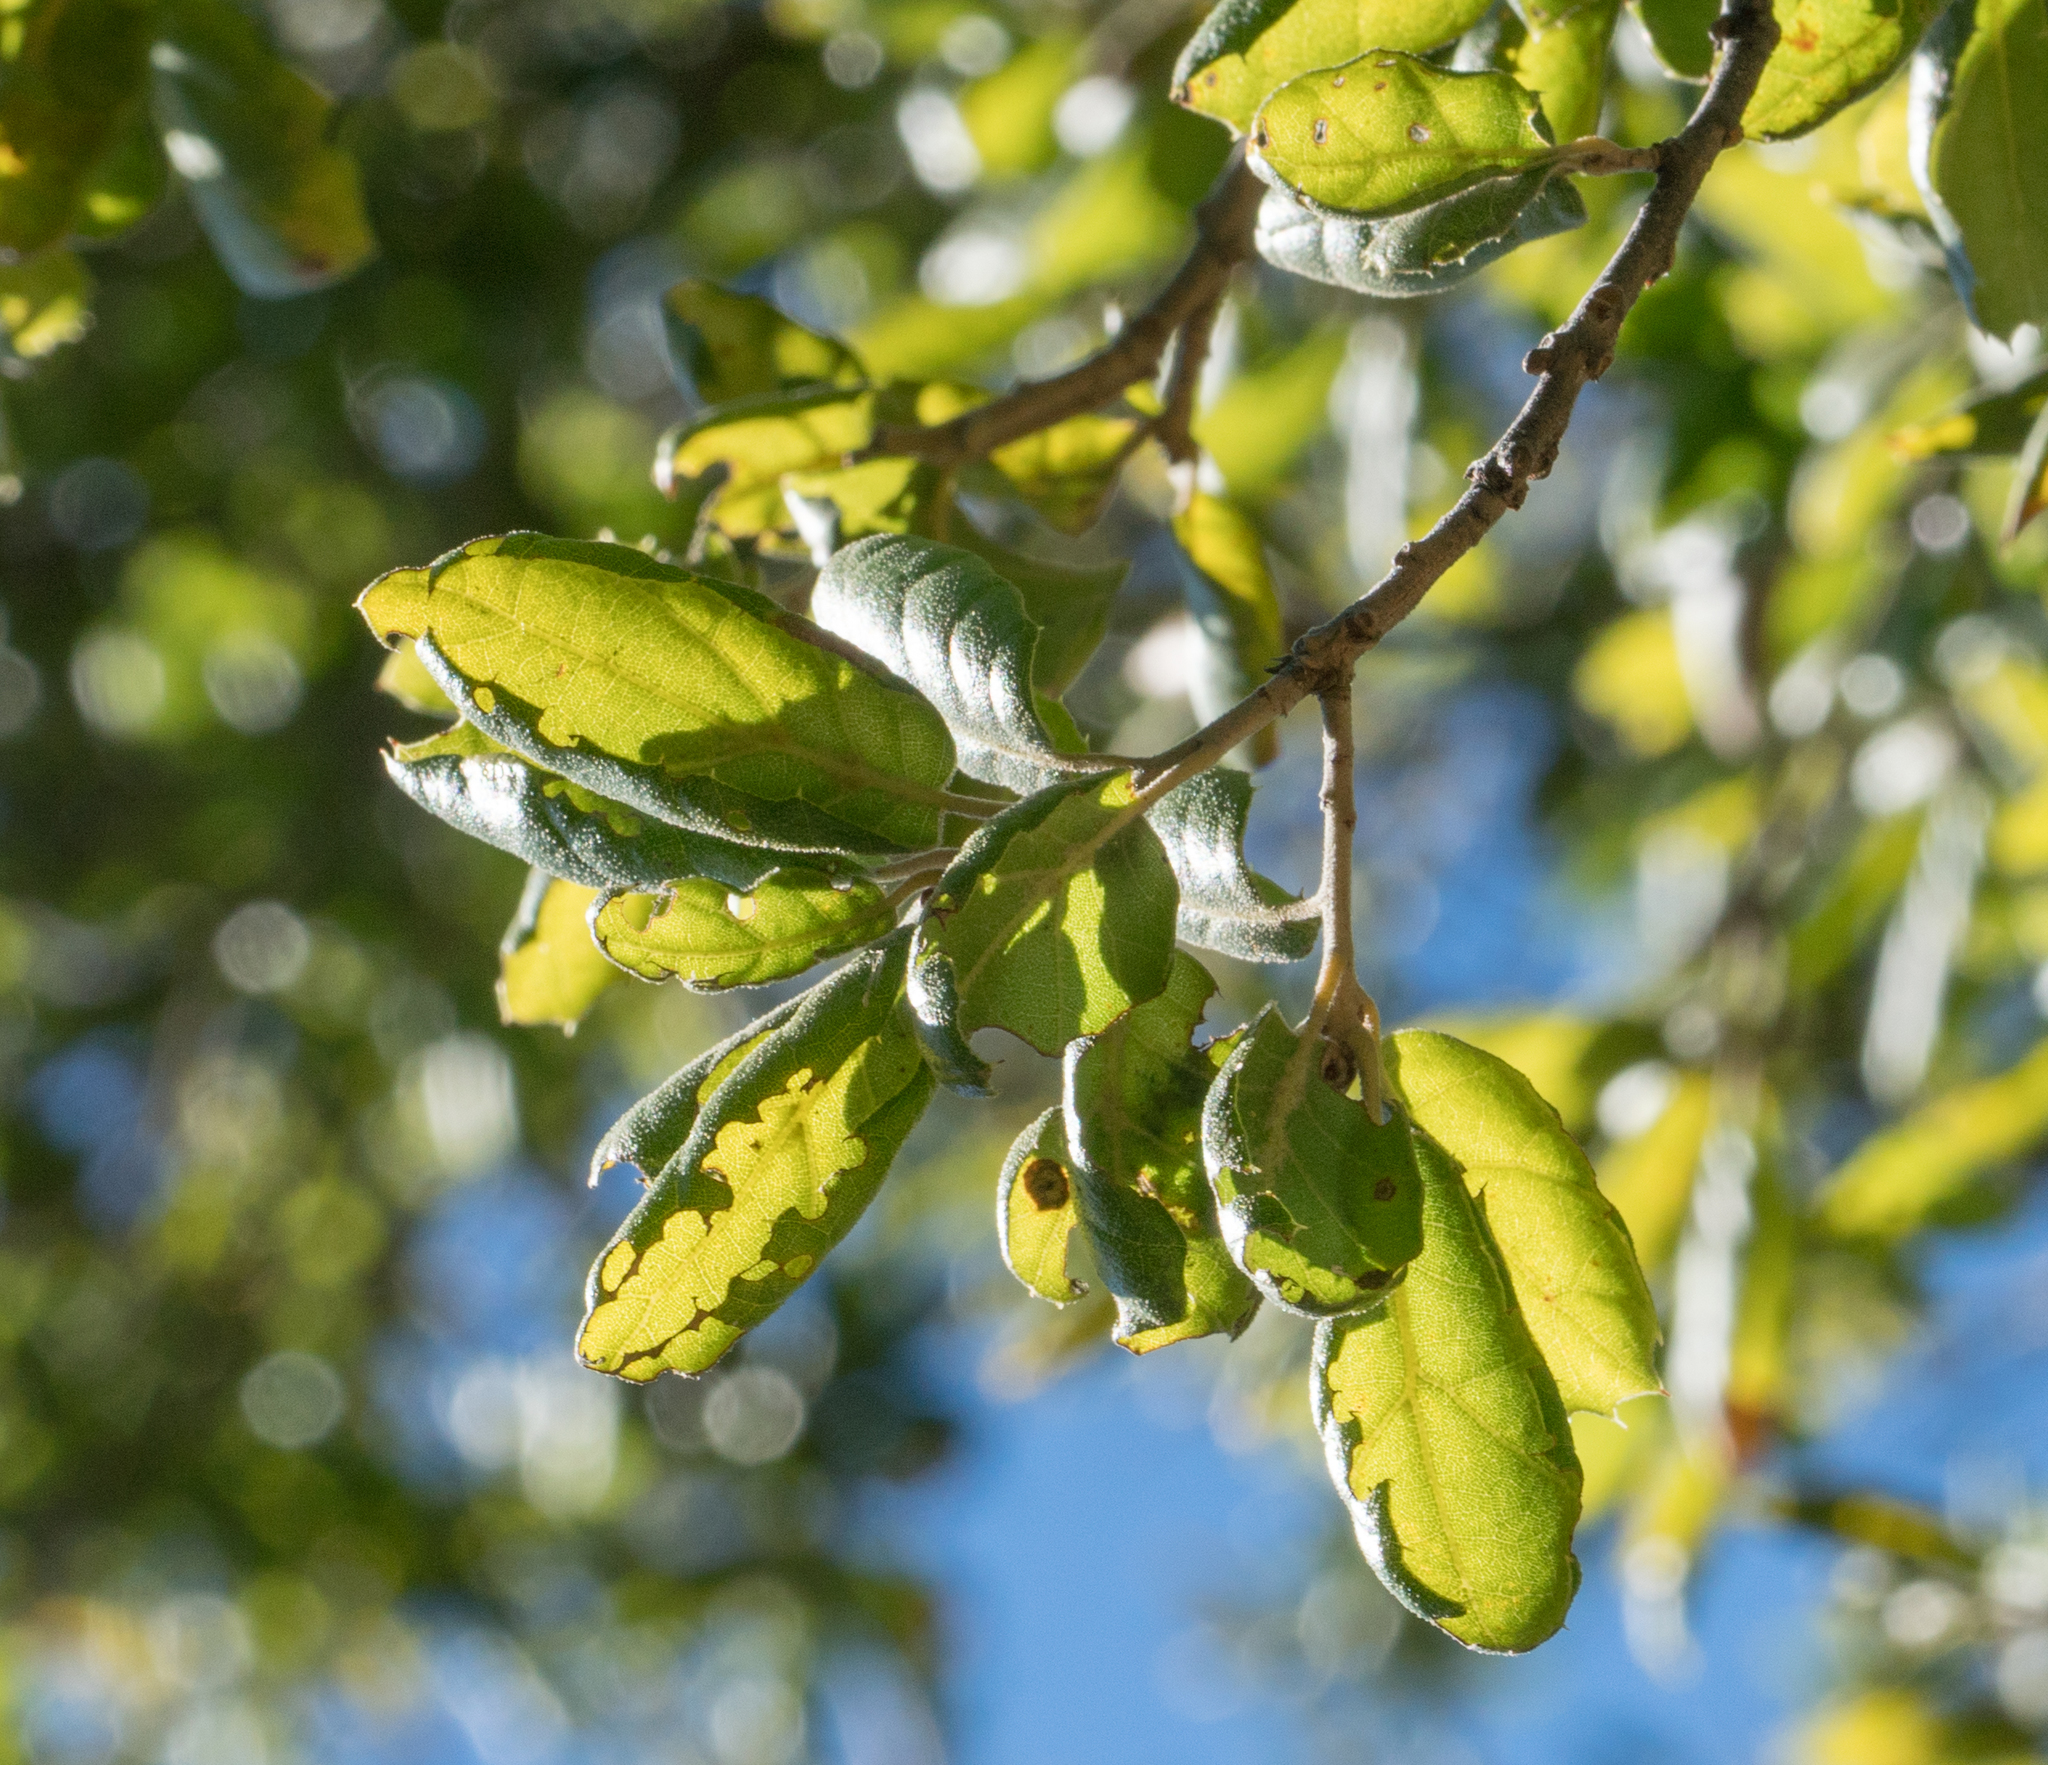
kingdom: Plantae
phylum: Tracheophyta
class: Magnoliopsida
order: Fagales
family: Fagaceae
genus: Quercus
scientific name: Quercus agrifolia
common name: California live oak
